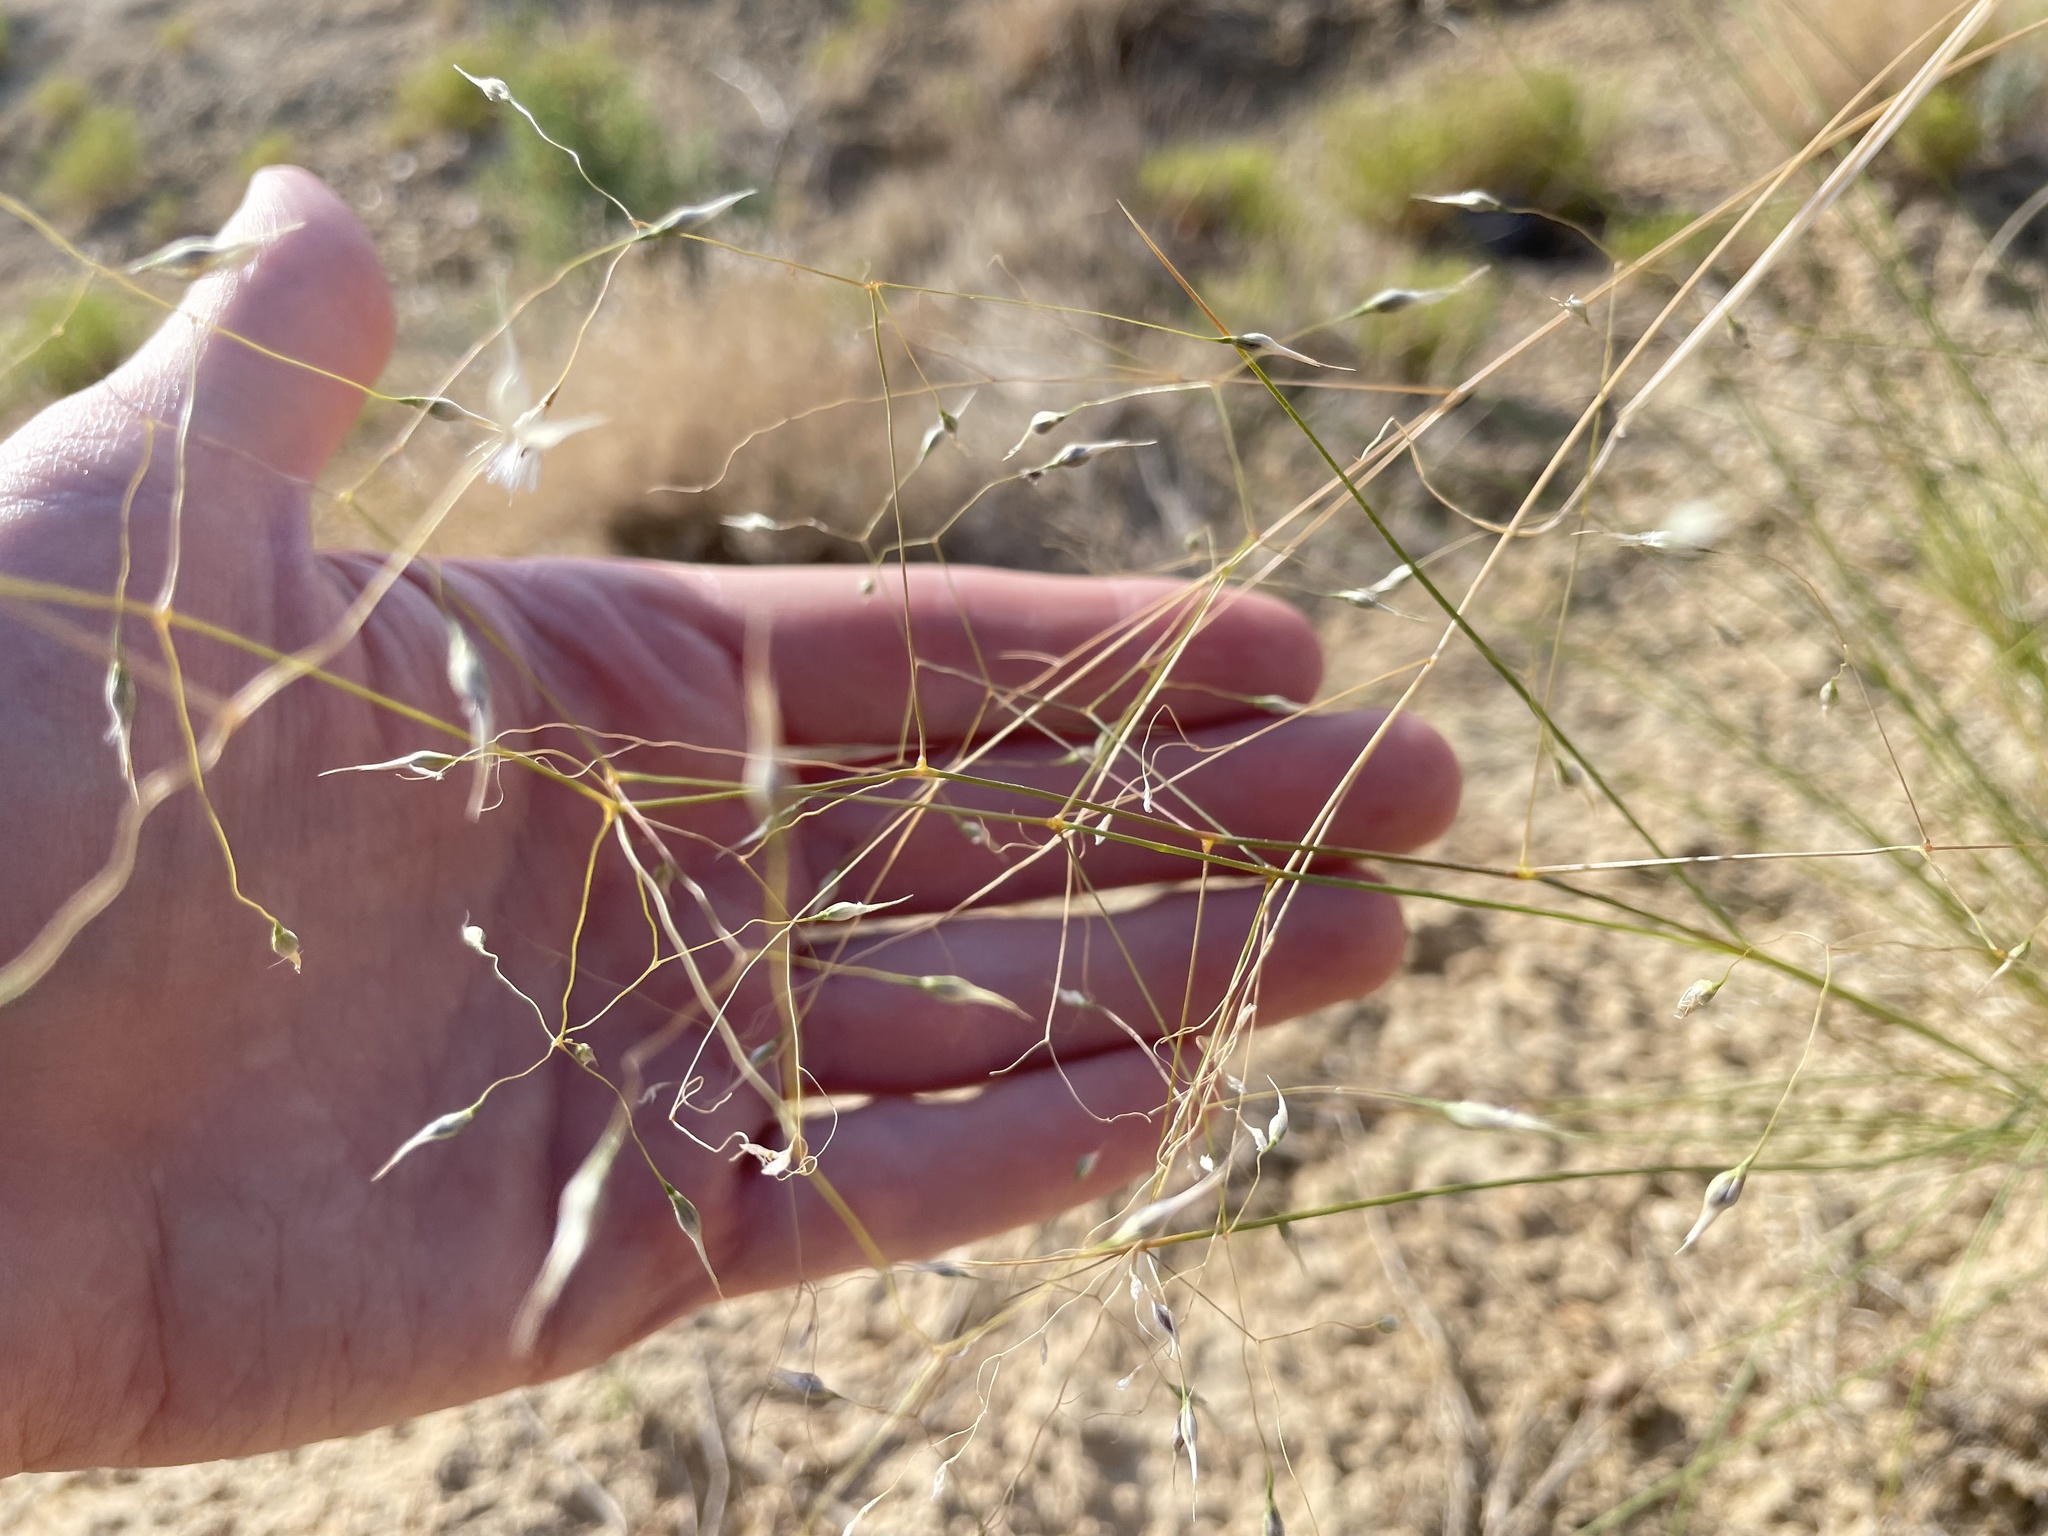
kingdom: Plantae
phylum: Tracheophyta
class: Liliopsida
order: Poales
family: Poaceae
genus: Eriocoma
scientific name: Eriocoma hymenoides
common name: Indian mountain ricegrass
